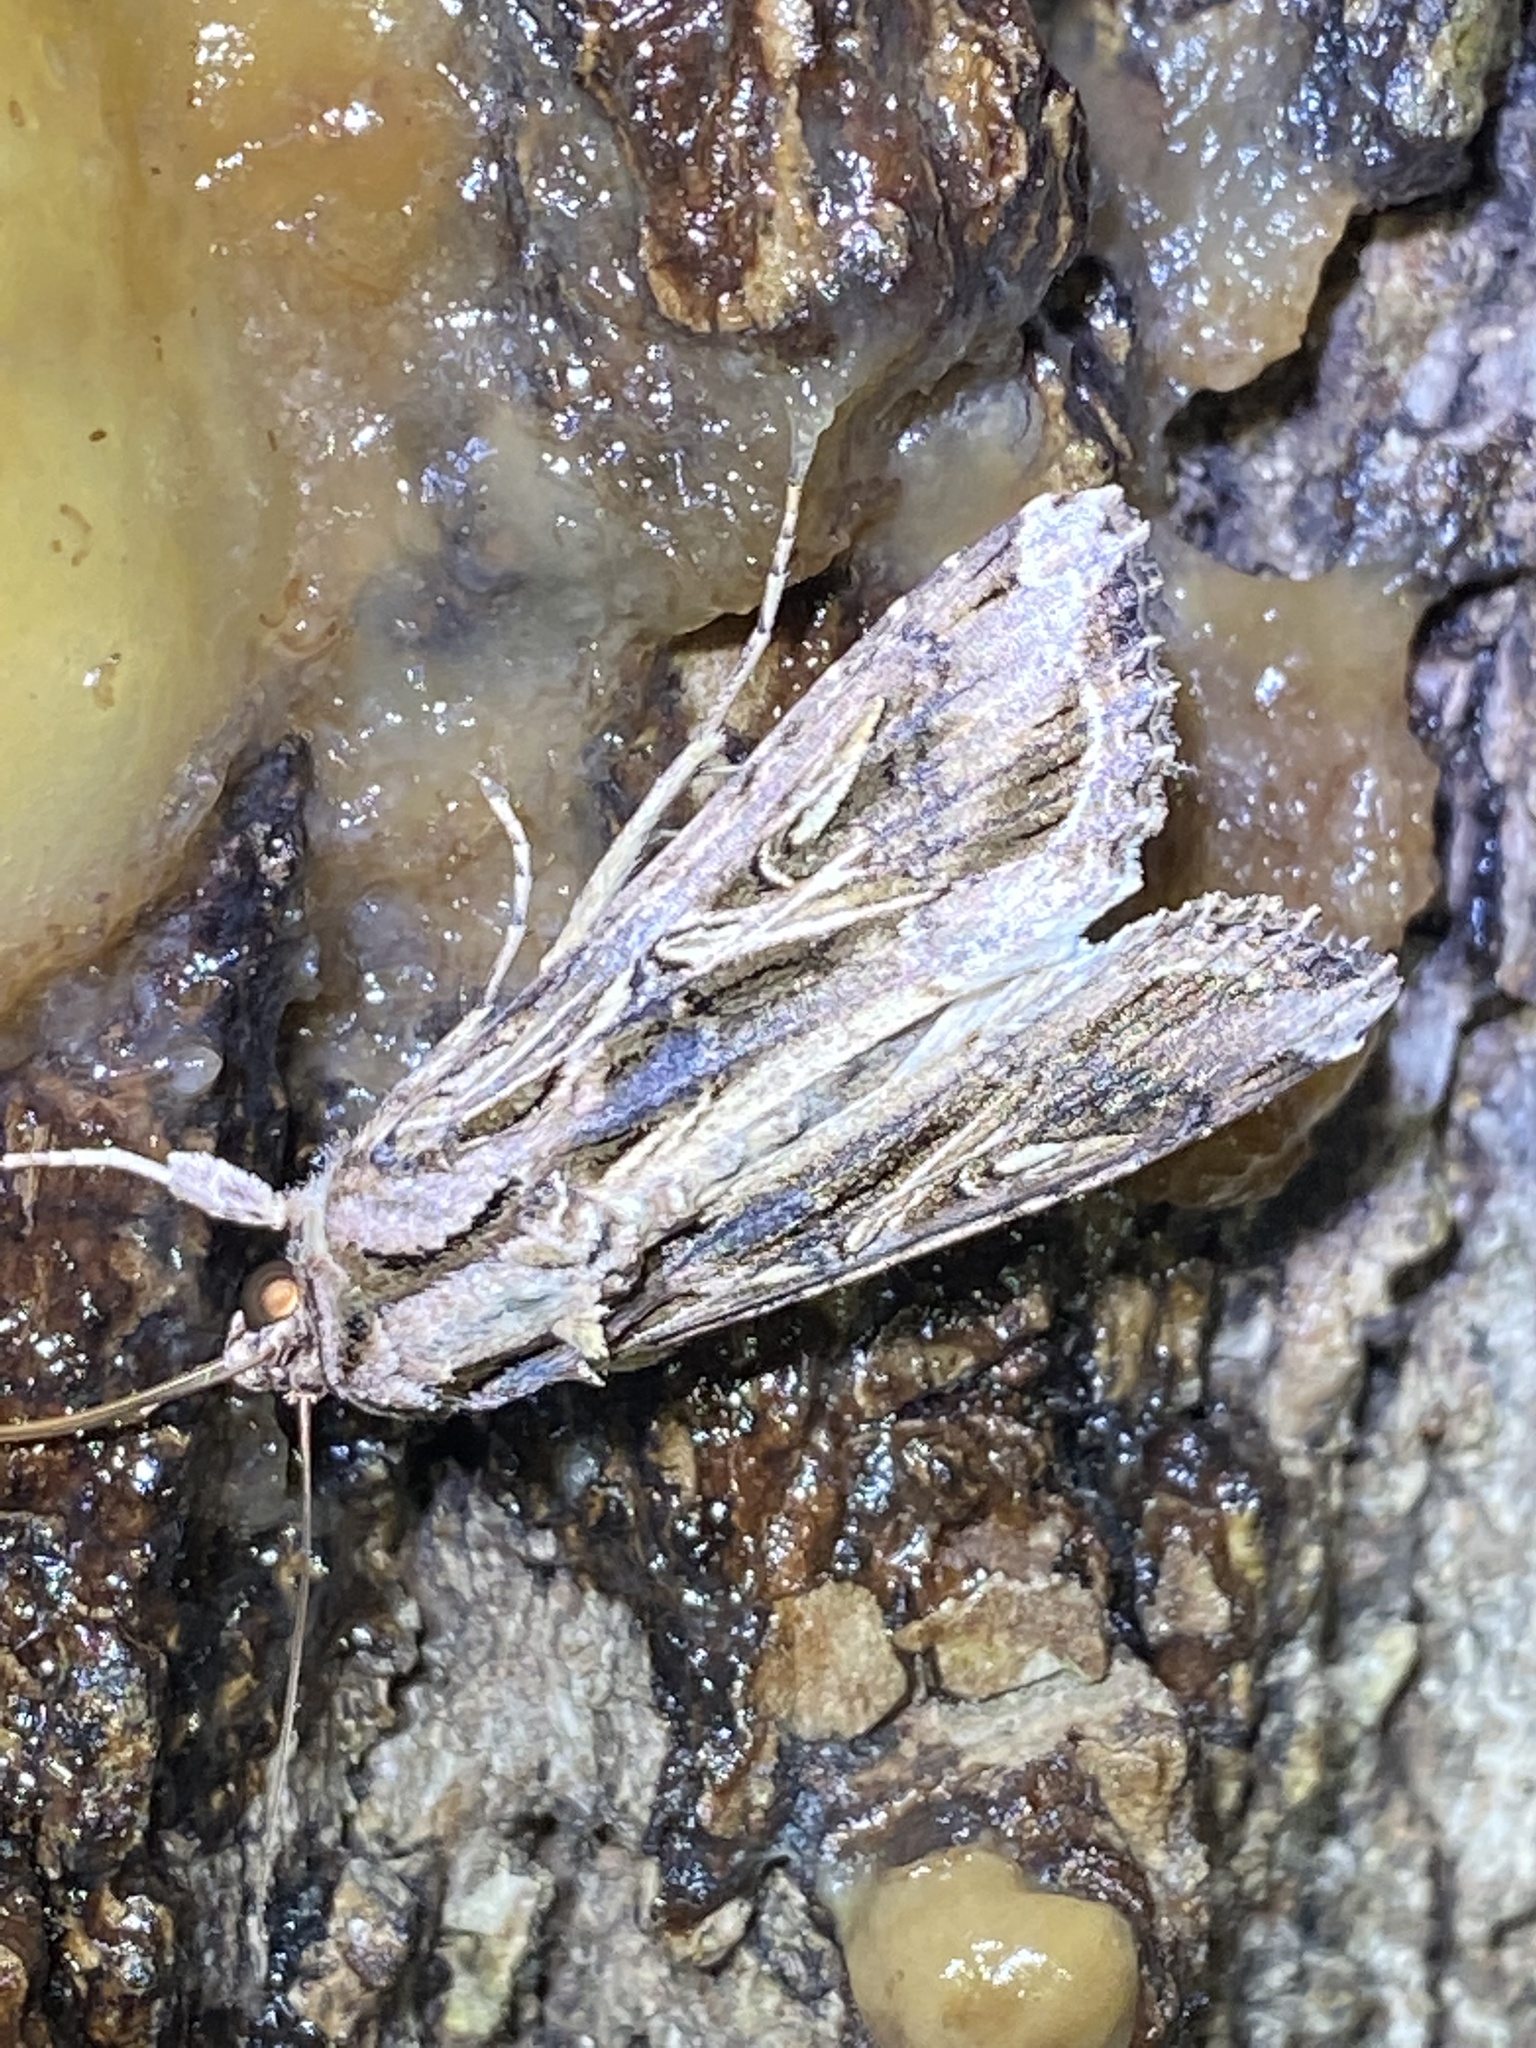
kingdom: Animalia
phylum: Arthropoda
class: Insecta
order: Lepidoptera
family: Noctuidae
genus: Spodoptera
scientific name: Spodoptera dolichos
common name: Sweetpotato armyworm
